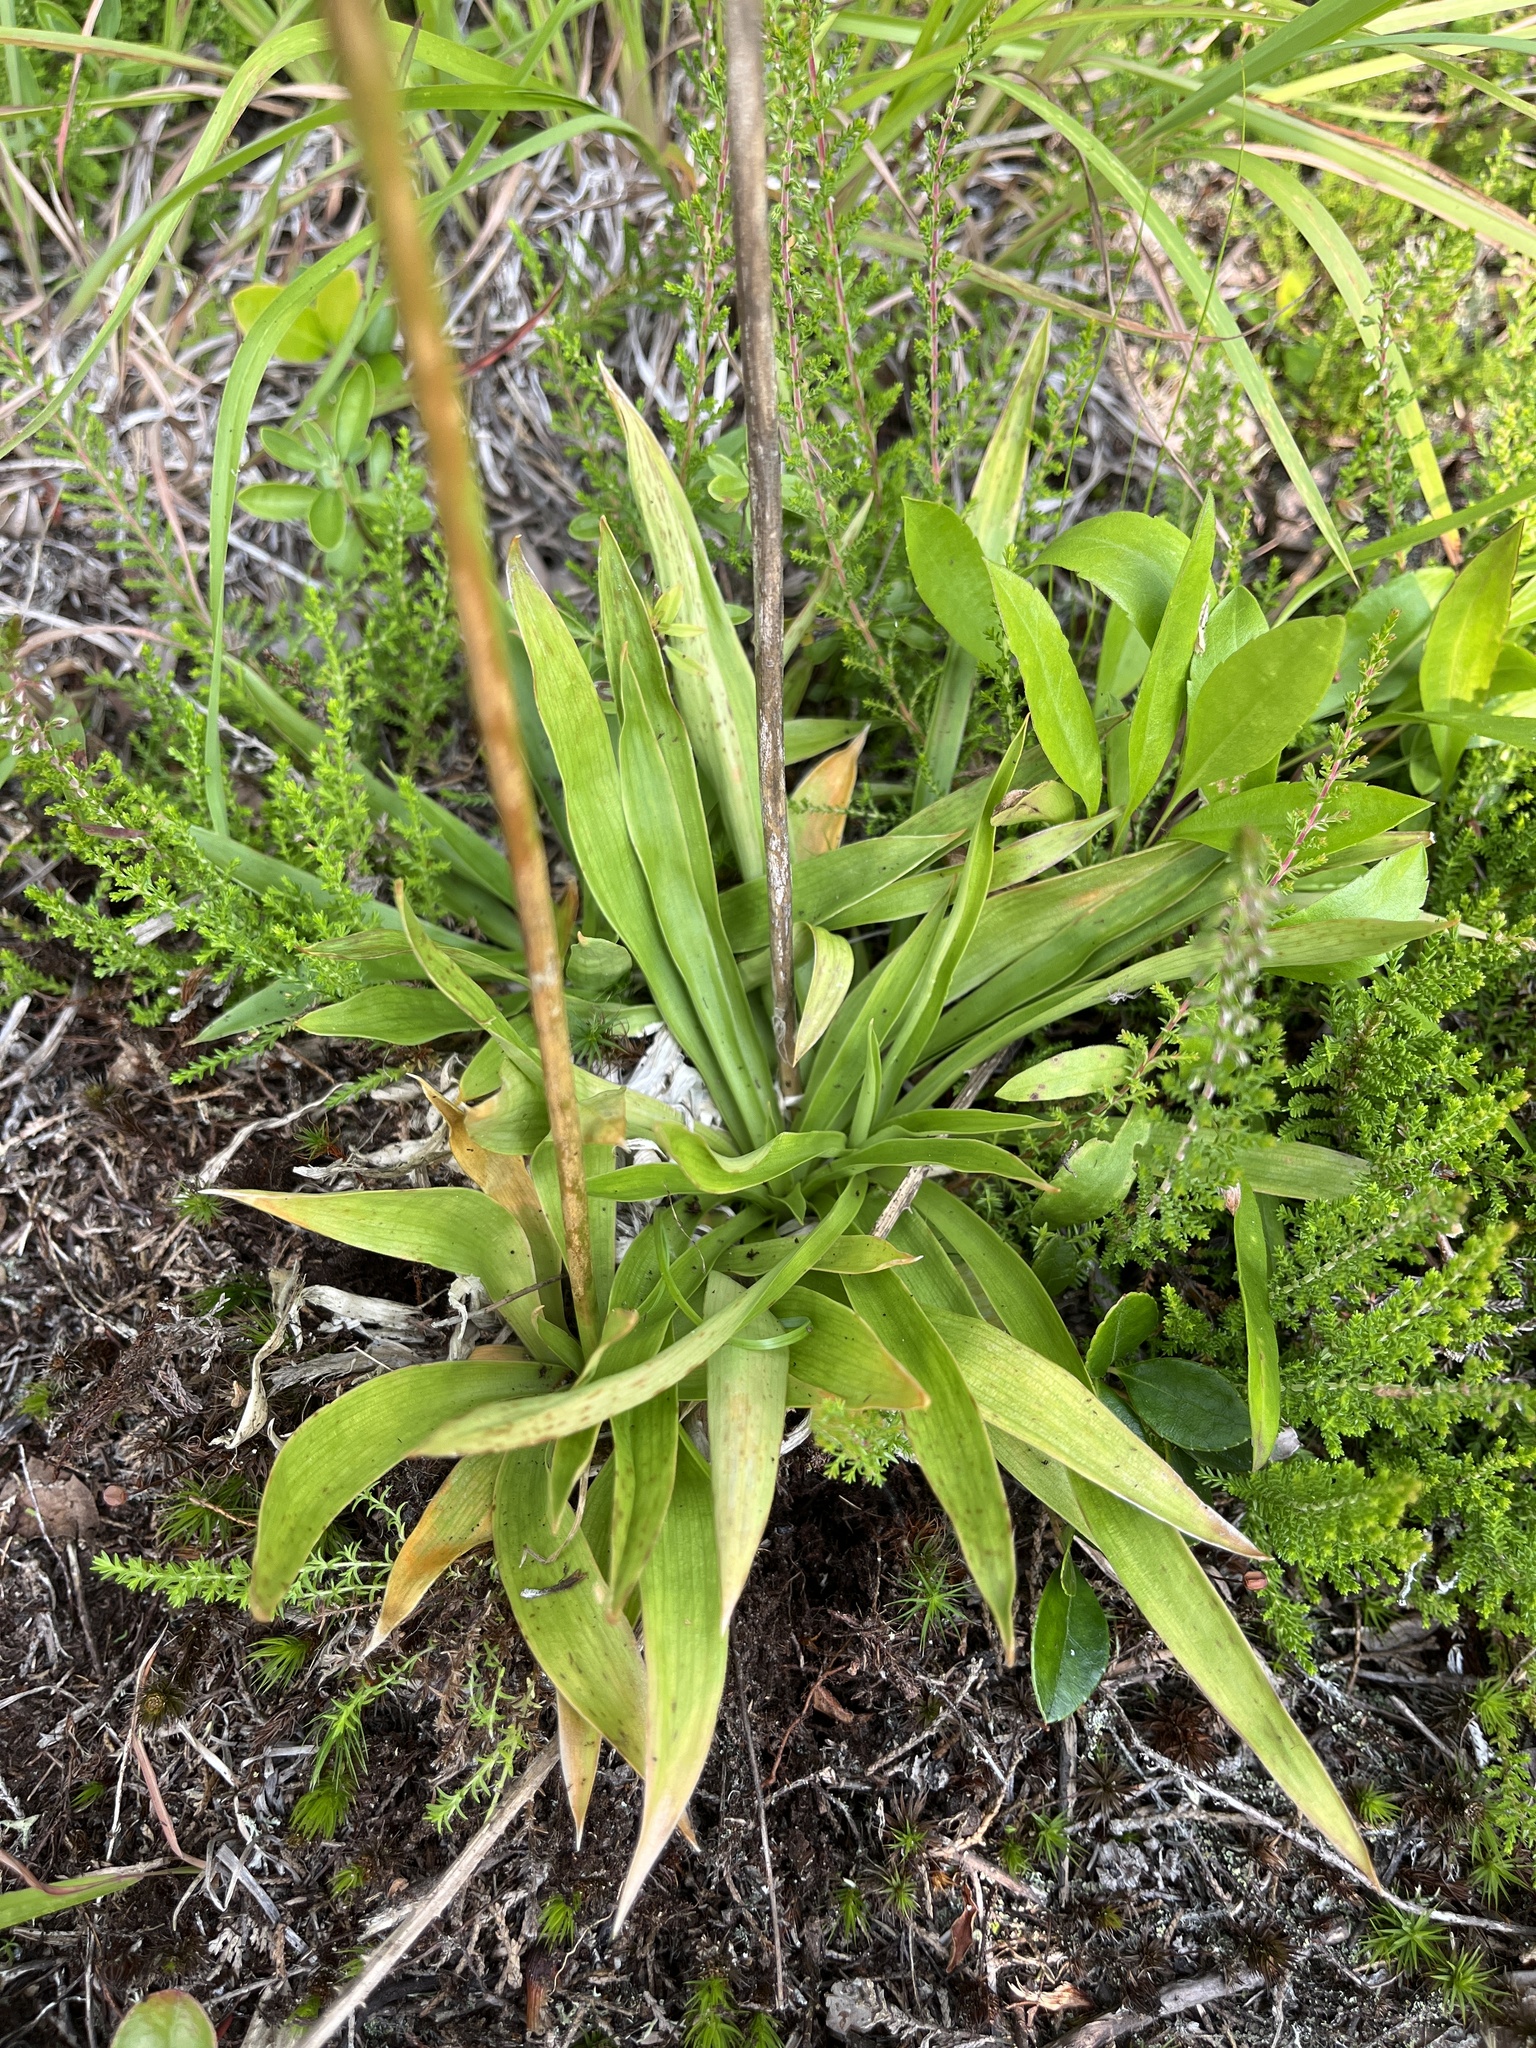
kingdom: Plantae
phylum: Tracheophyta
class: Liliopsida
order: Dioscoreales
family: Nartheciaceae
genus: Aletris
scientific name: Aletris farinosa
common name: Colicroot
